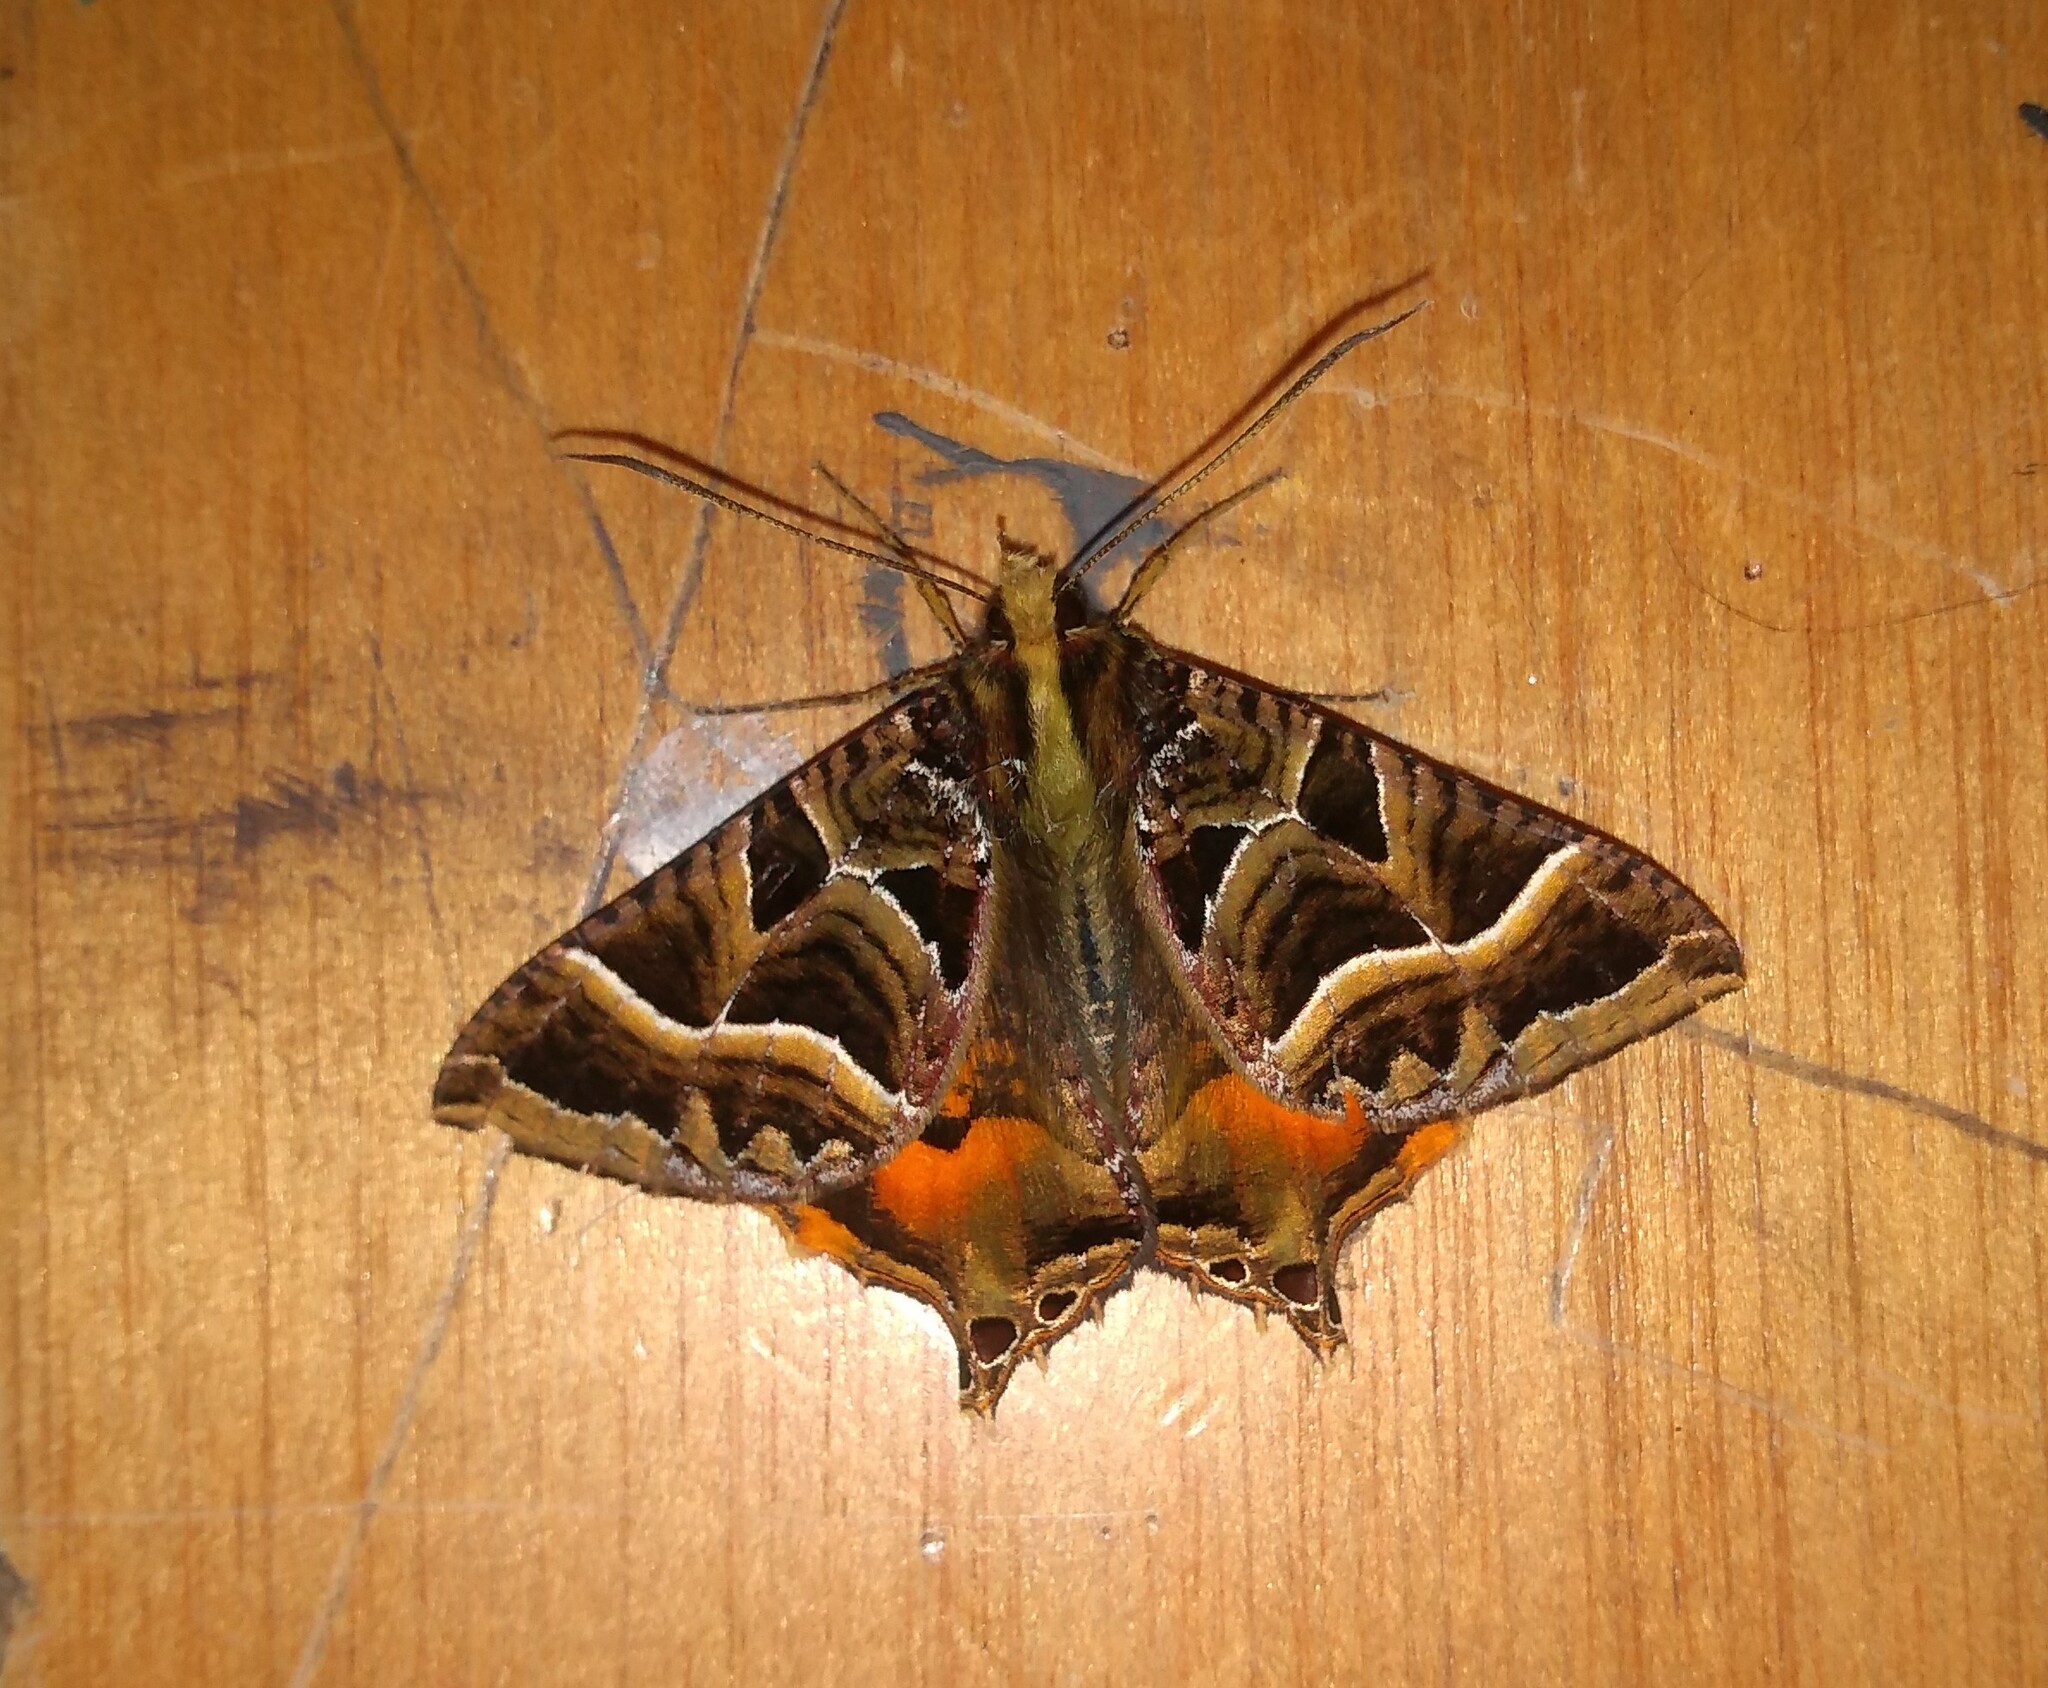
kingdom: Animalia
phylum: Arthropoda
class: Insecta
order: Lepidoptera
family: Sematuridae
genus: Coronidia
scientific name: Coronidia
